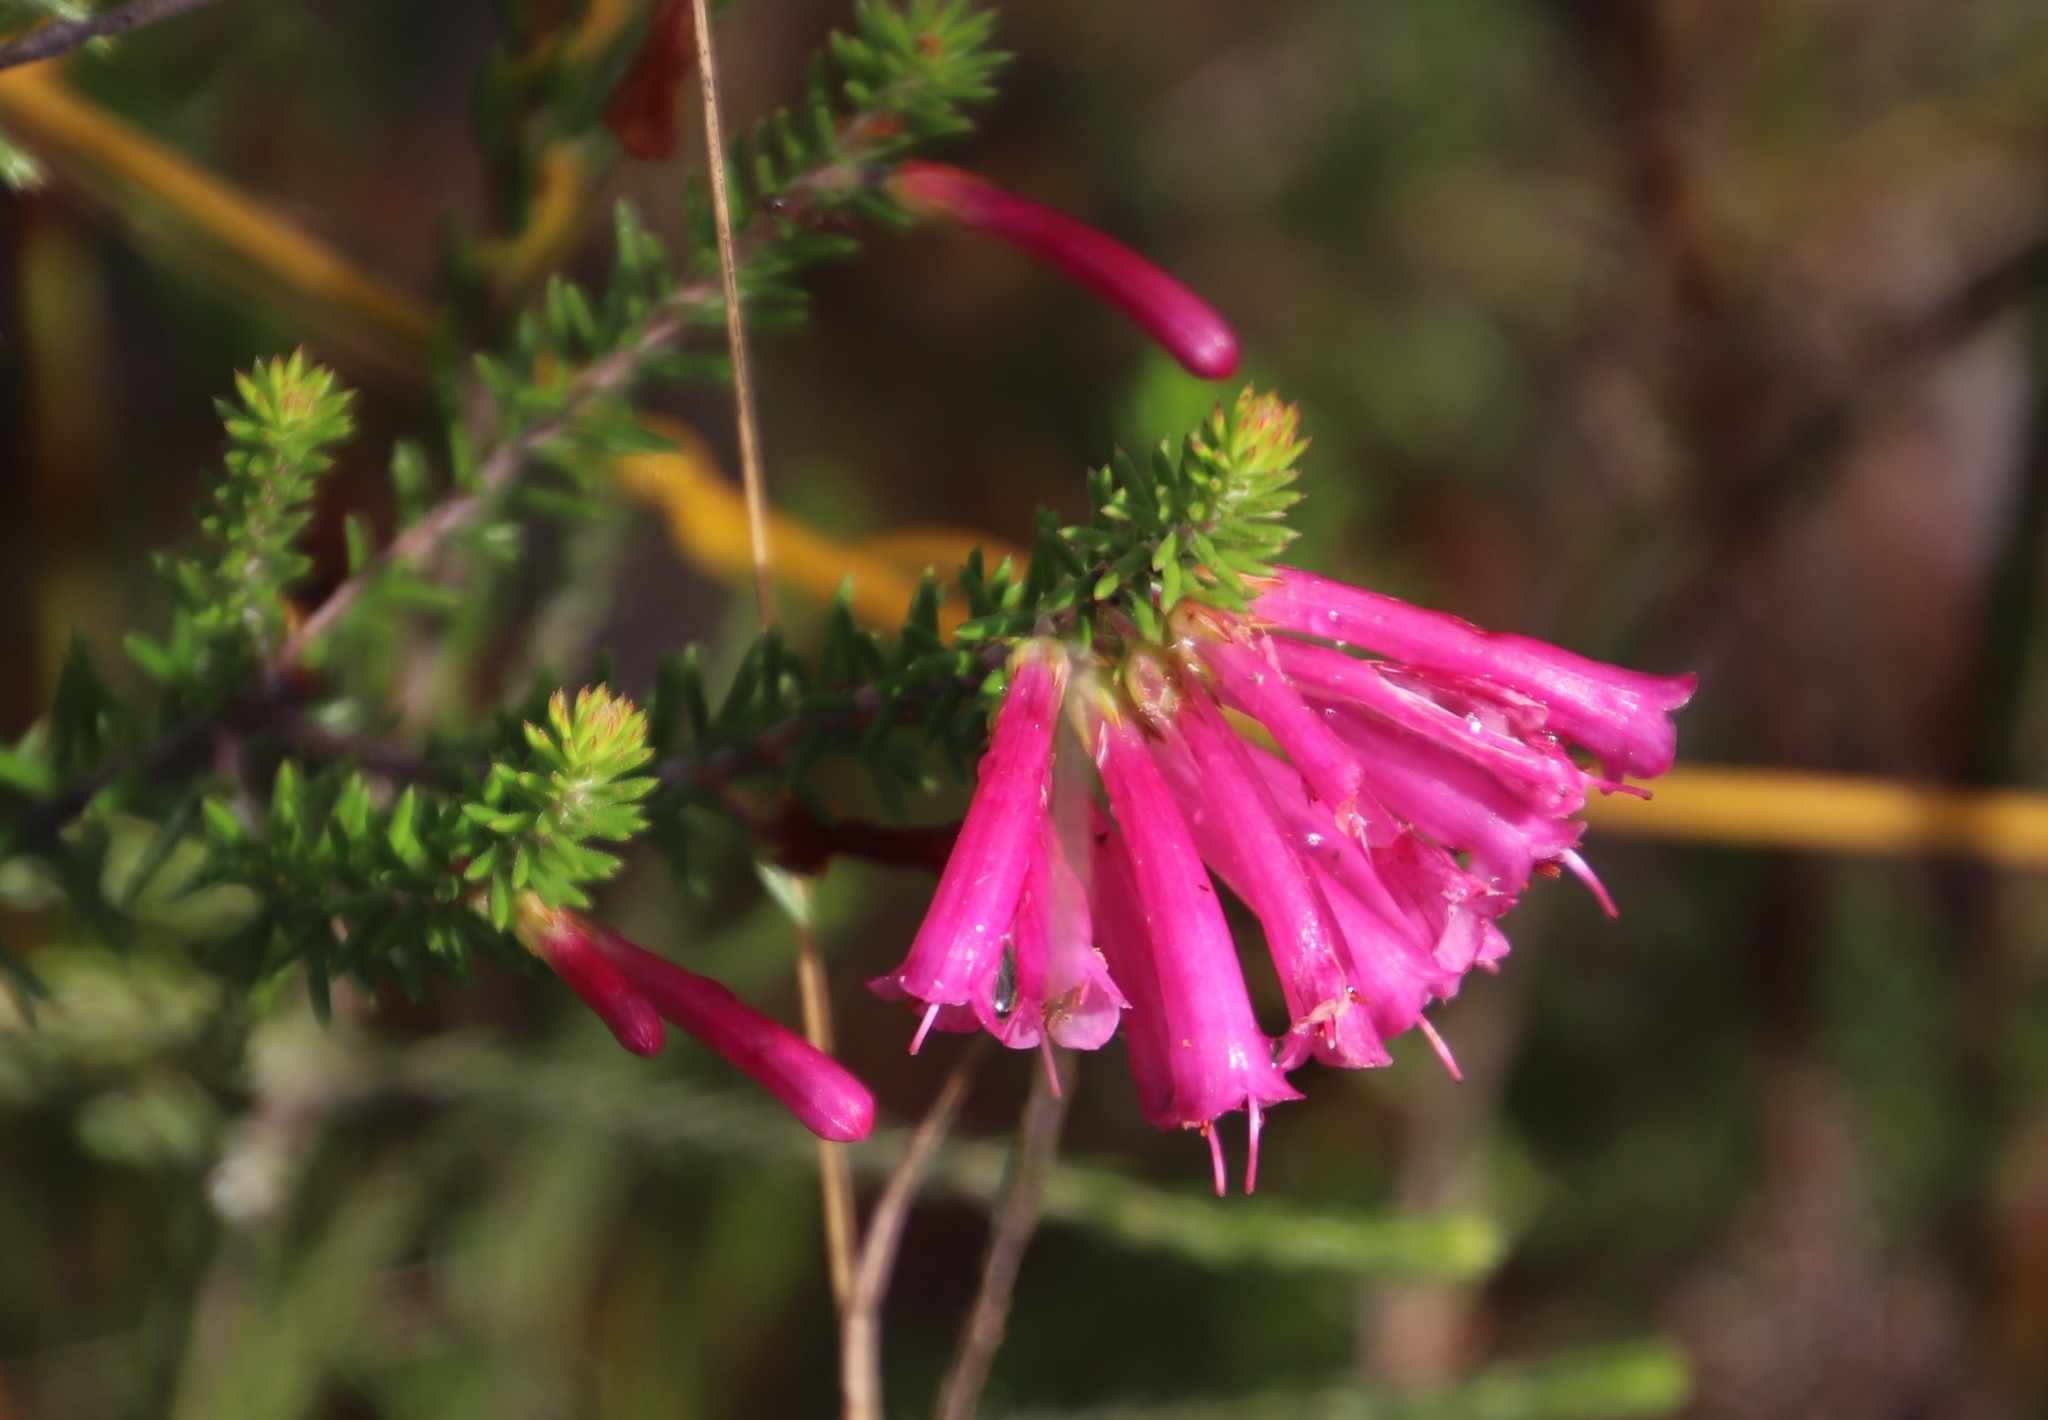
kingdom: Plantae
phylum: Tracheophyta
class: Magnoliopsida
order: Ericales
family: Ericaceae
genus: Erica
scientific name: Erica abietina
